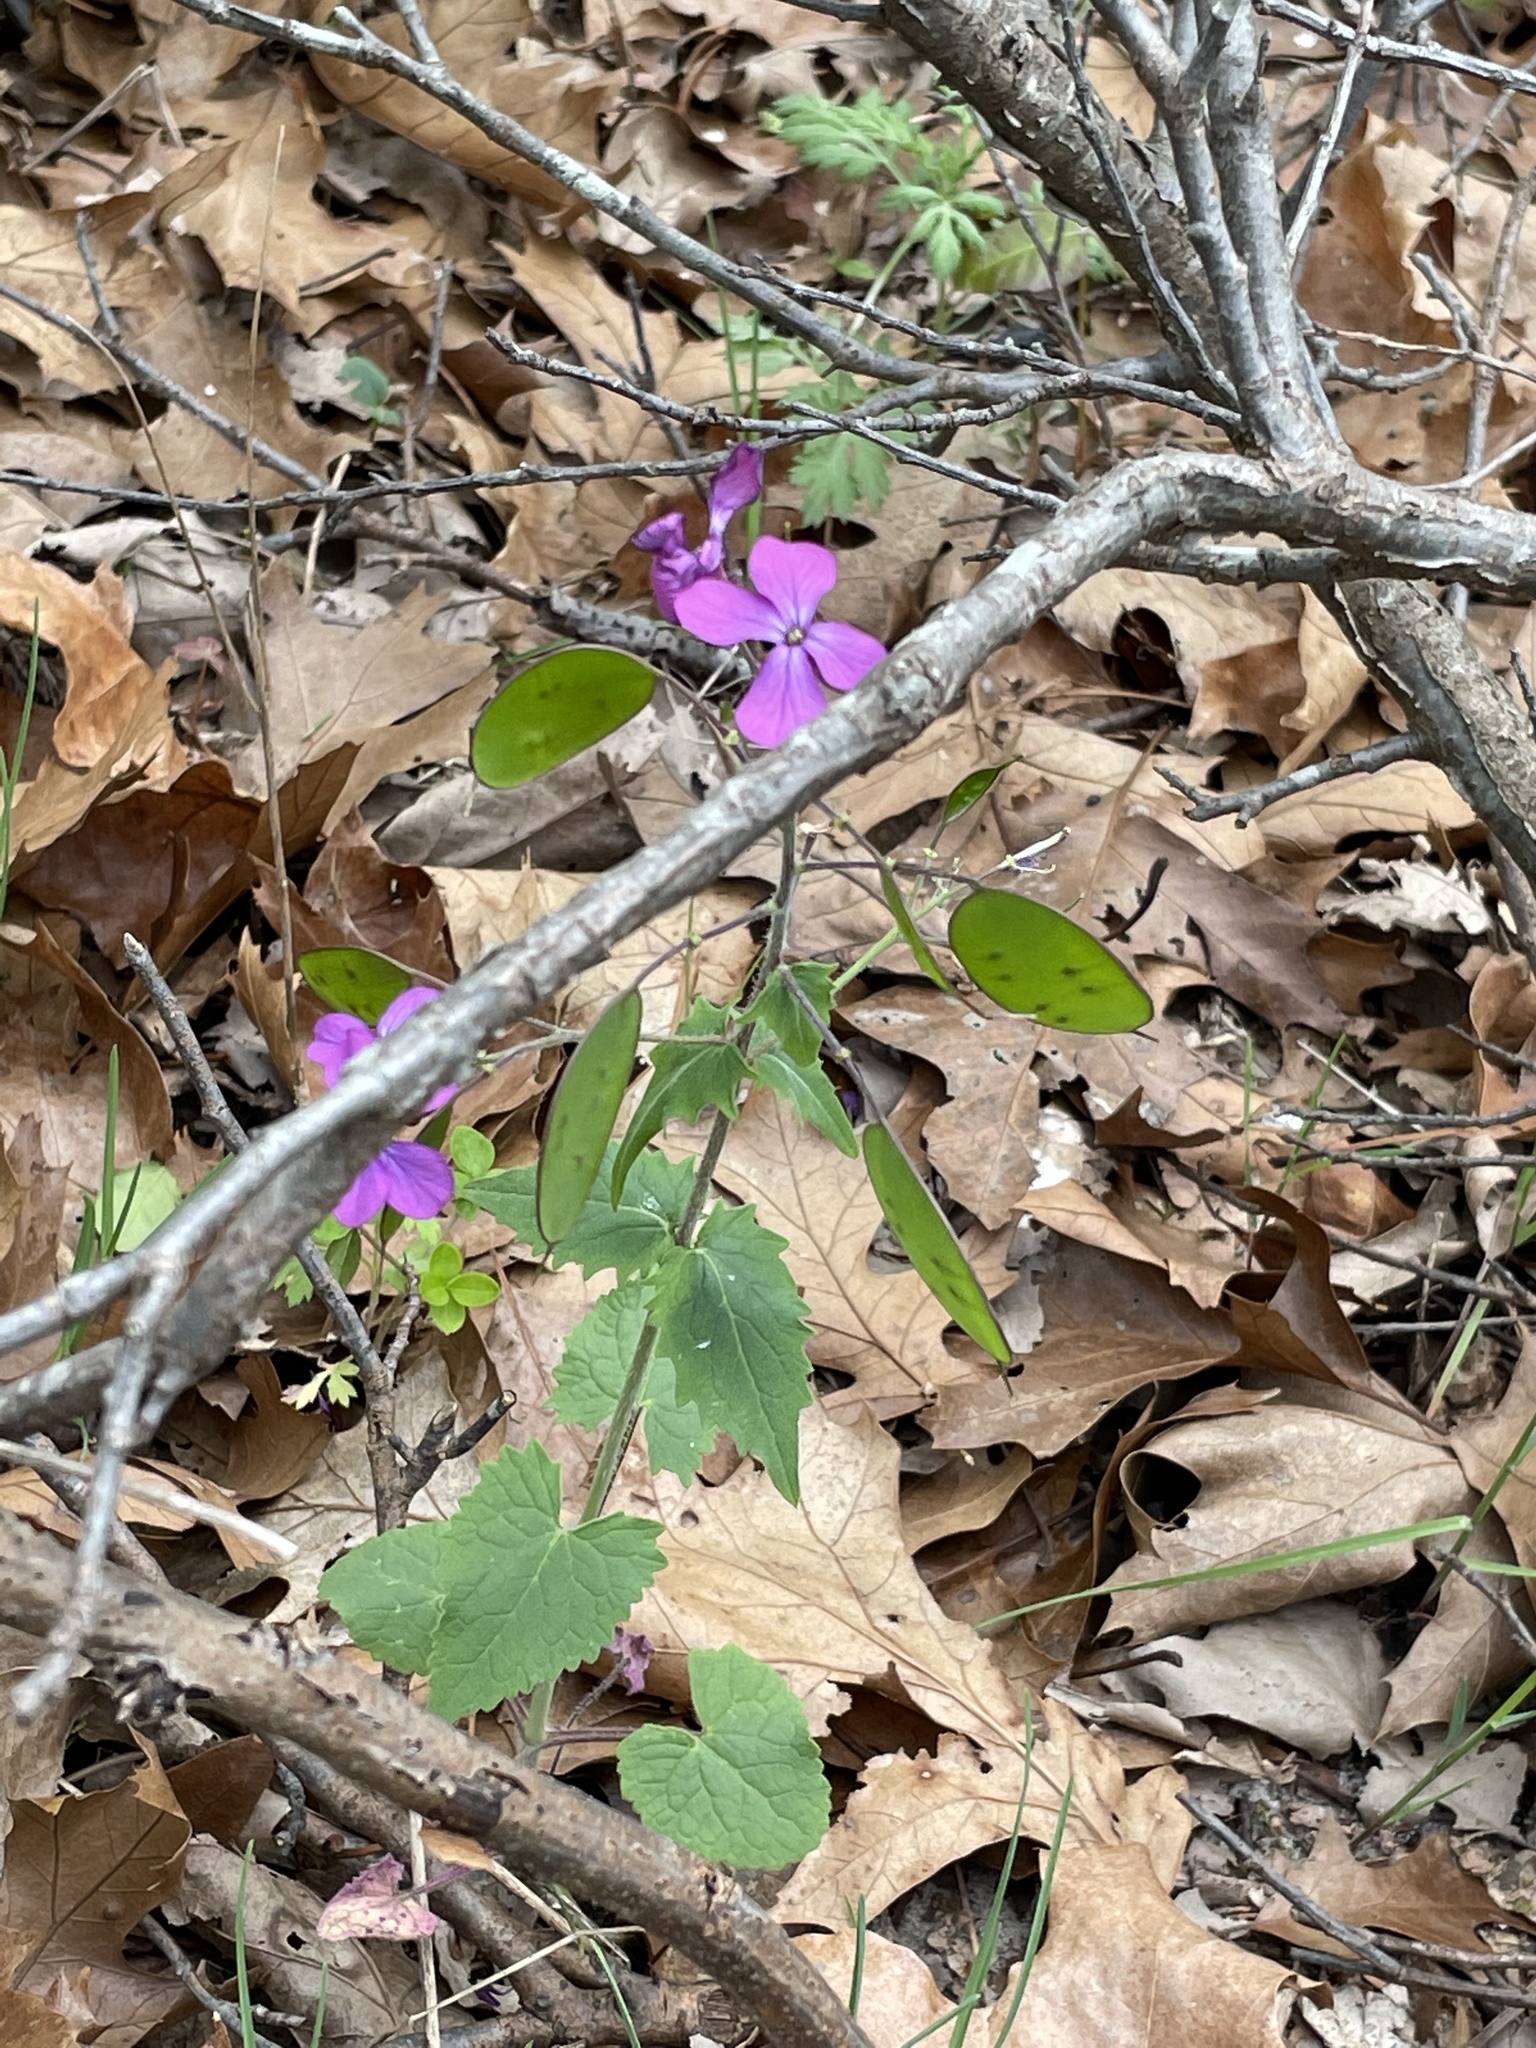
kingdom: Plantae
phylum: Tracheophyta
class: Magnoliopsida
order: Brassicales
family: Brassicaceae
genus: Lunaria
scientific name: Lunaria annua
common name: Honesty
